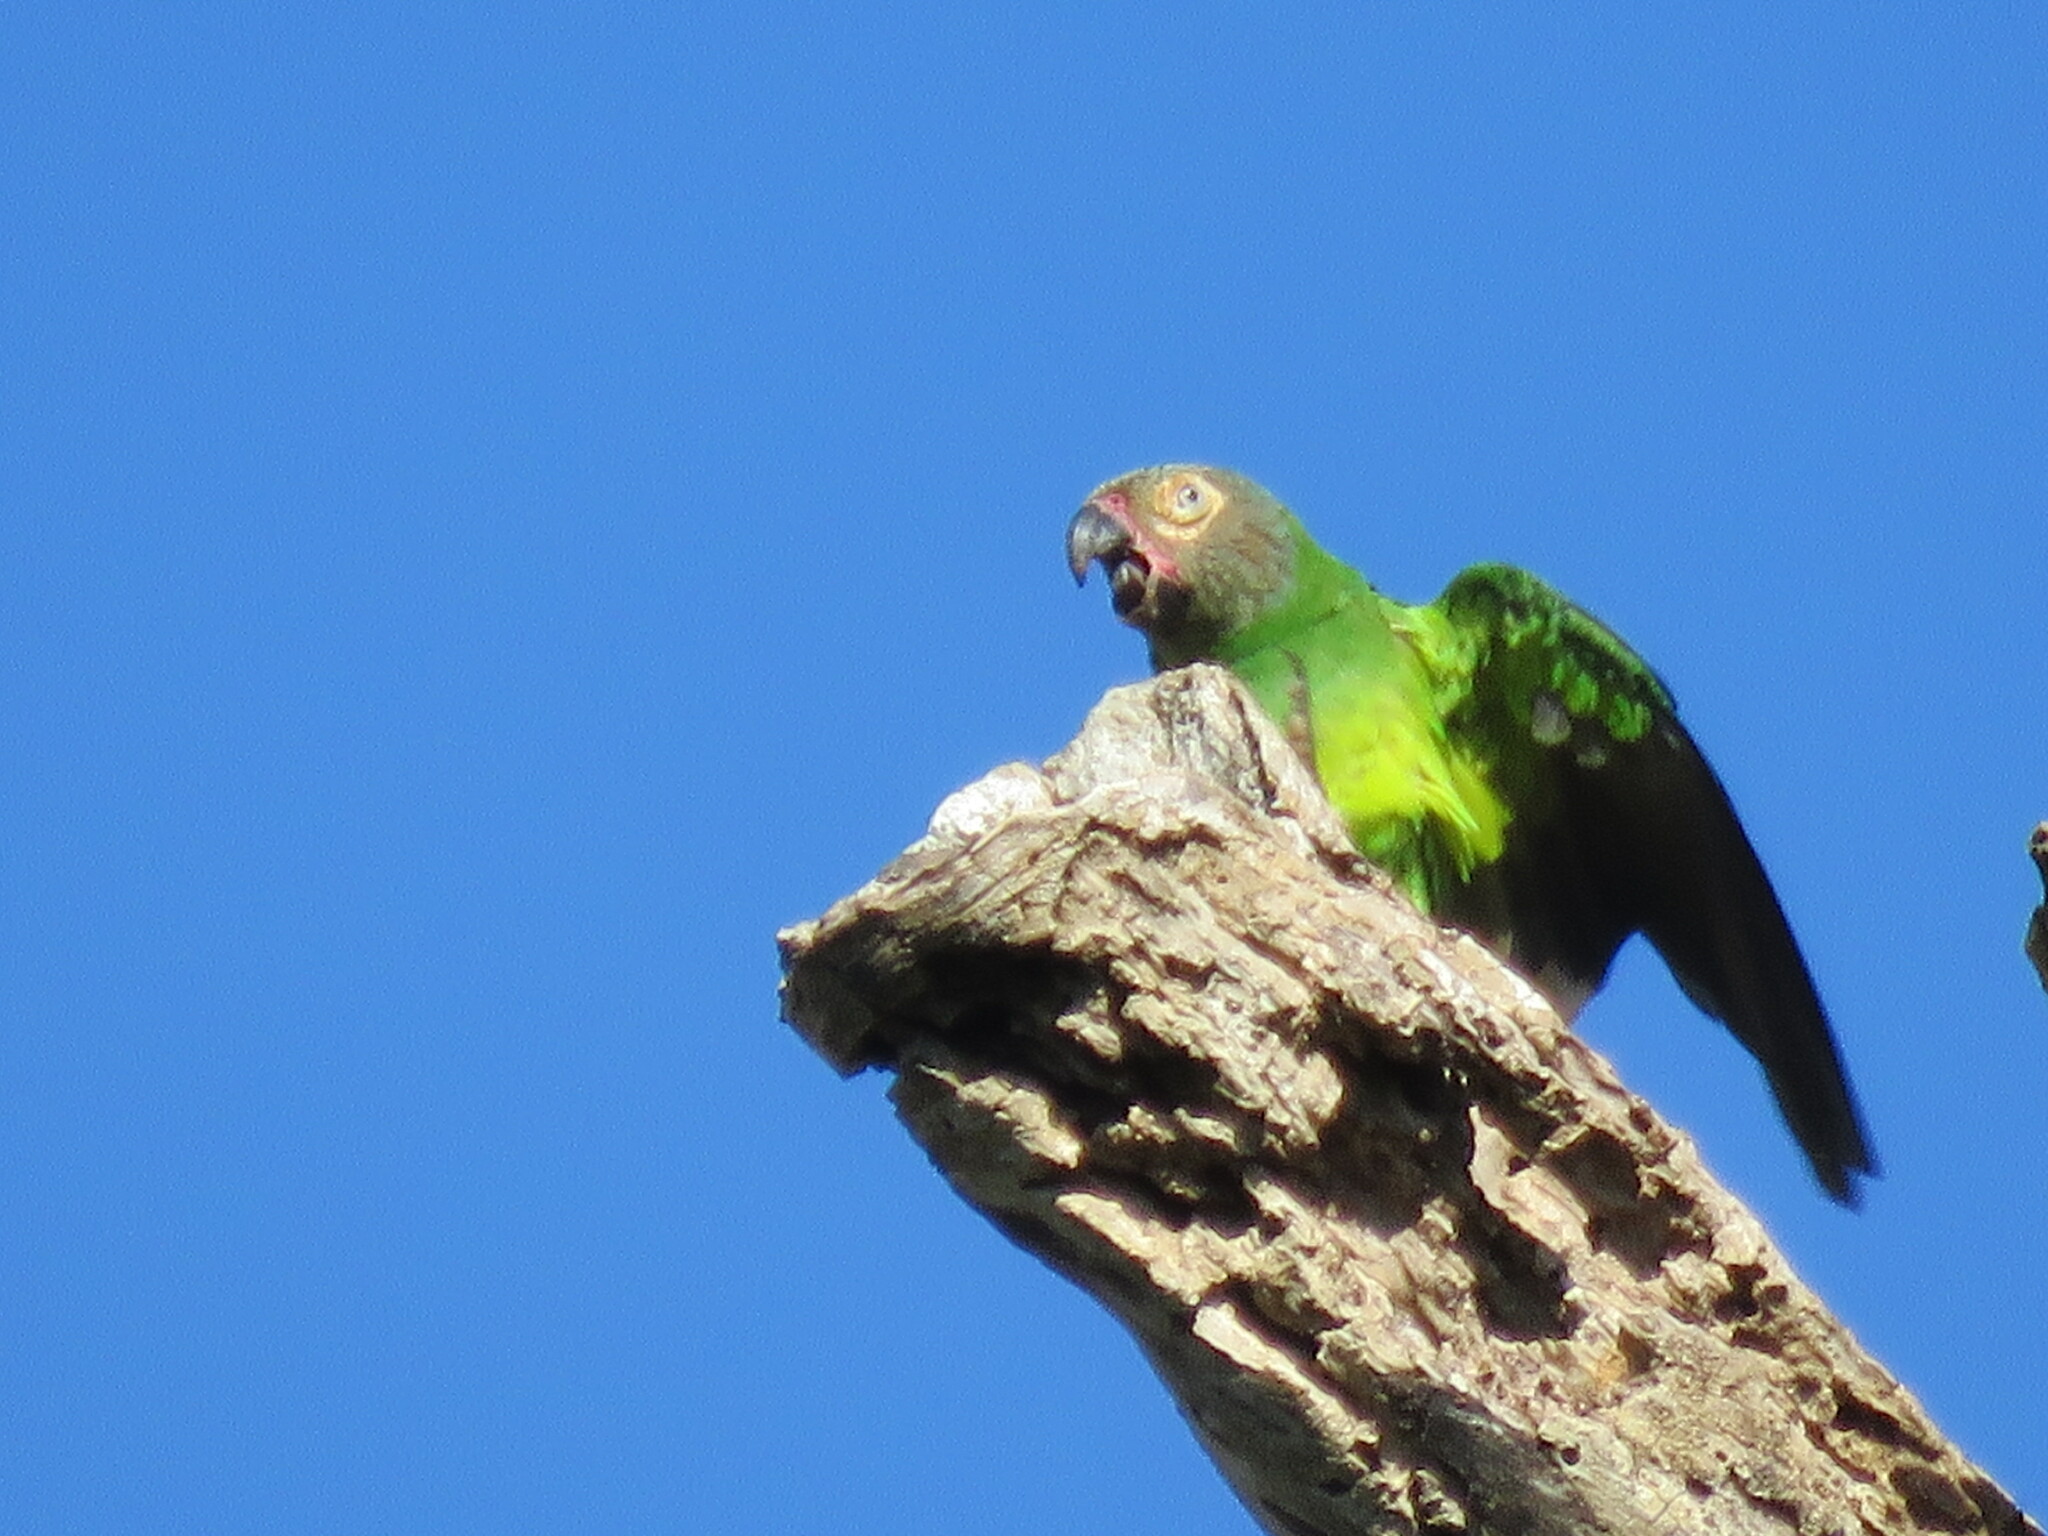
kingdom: Animalia
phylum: Chordata
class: Aves
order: Psittaciformes
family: Psittacidae
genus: Aratinga
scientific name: Aratinga weddellii
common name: Dusky-headed parakeet
